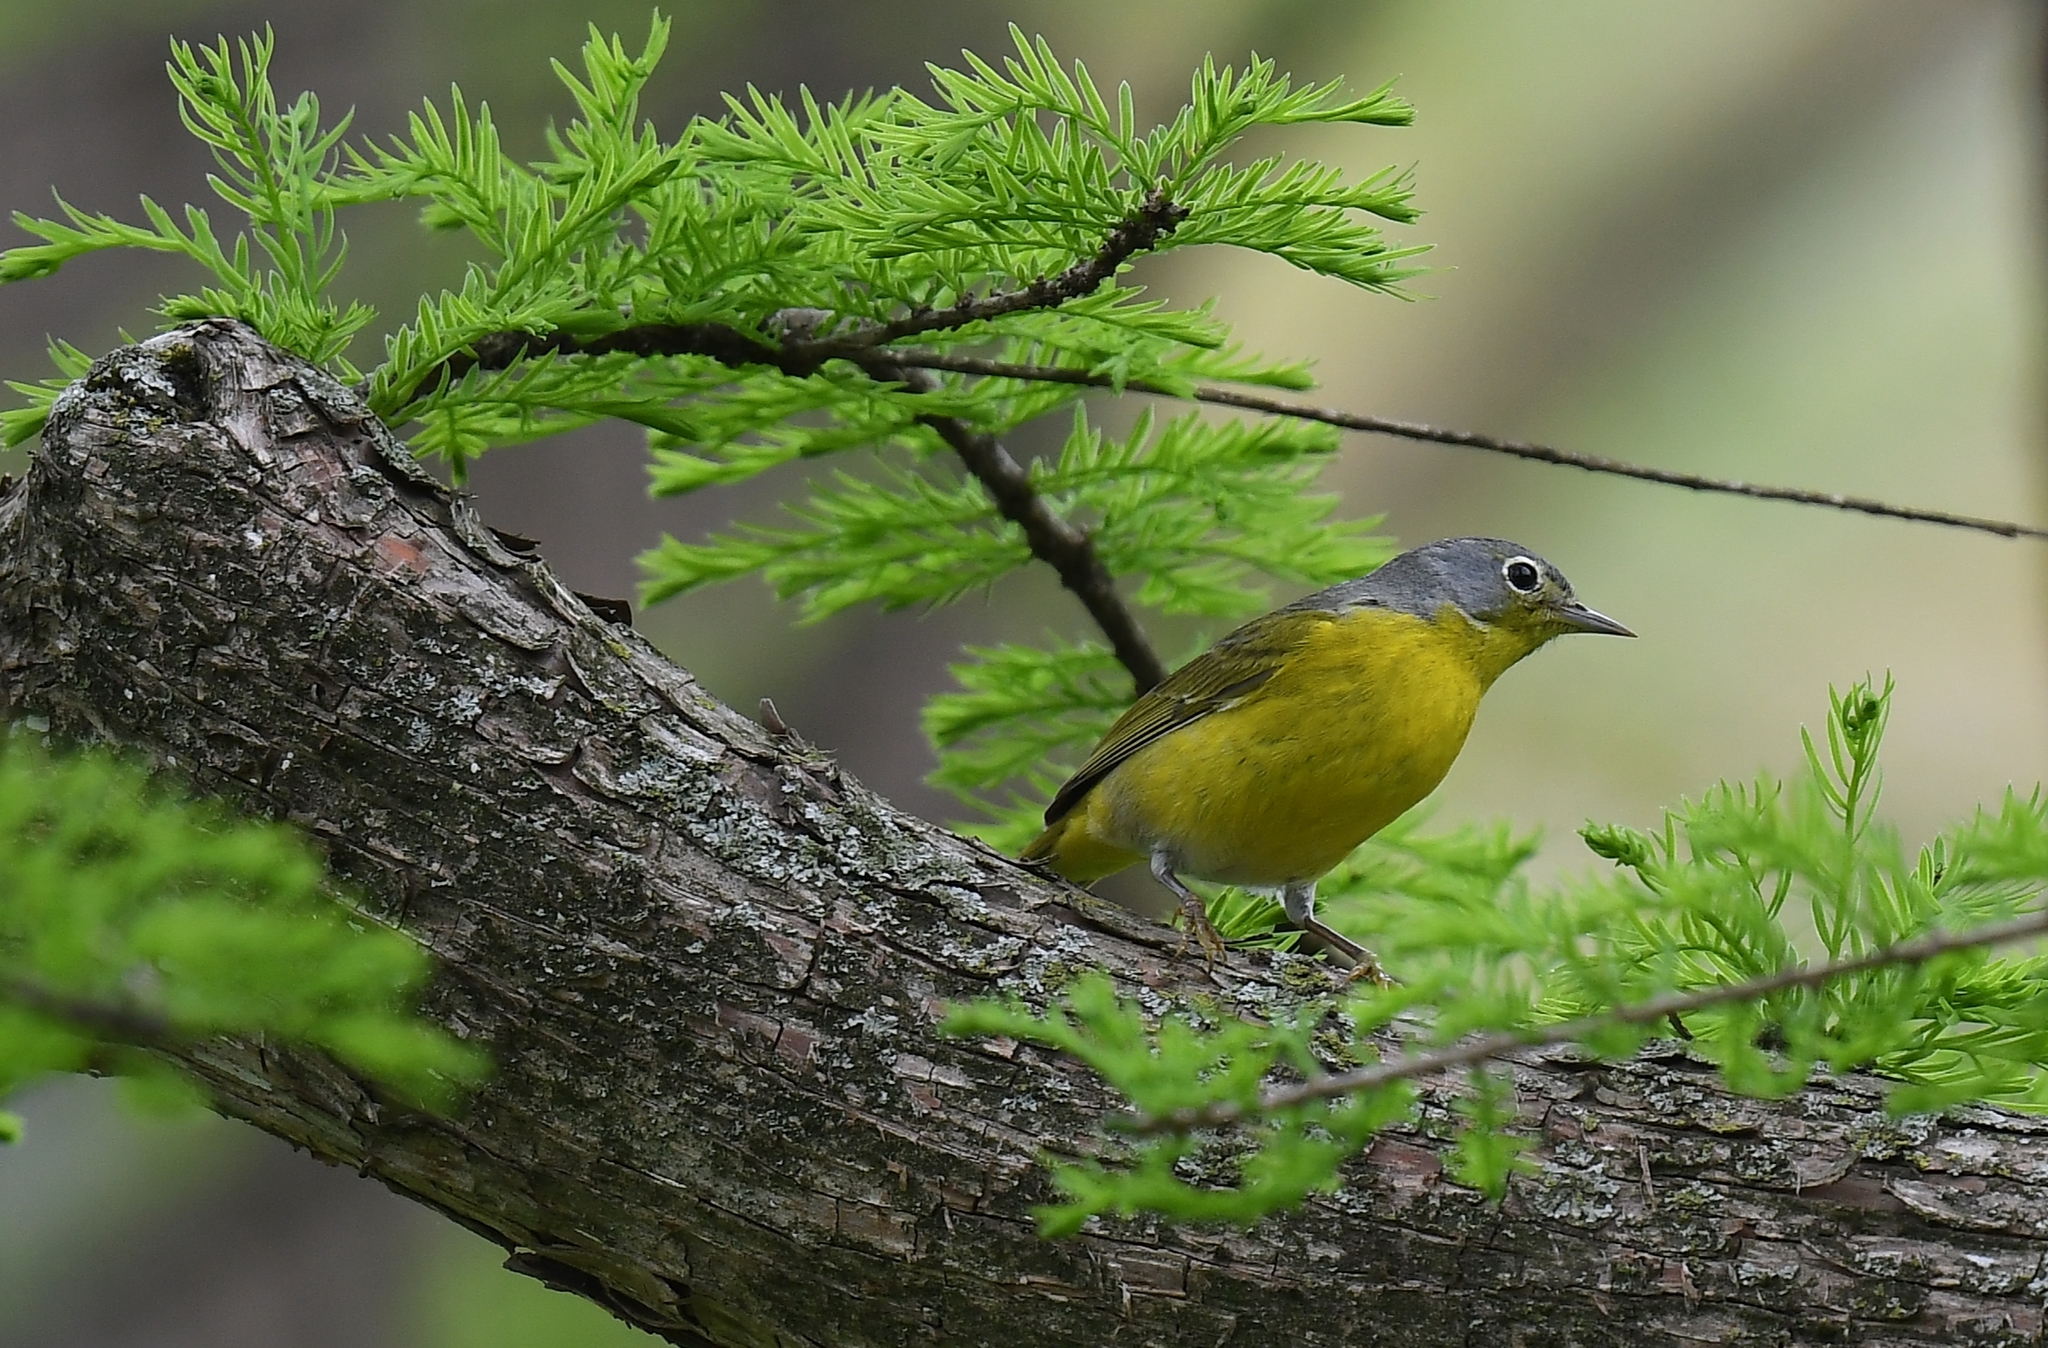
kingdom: Animalia
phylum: Chordata
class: Aves
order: Passeriformes
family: Parulidae
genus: Leiothlypis
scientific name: Leiothlypis ruficapilla
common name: Nashville warbler
